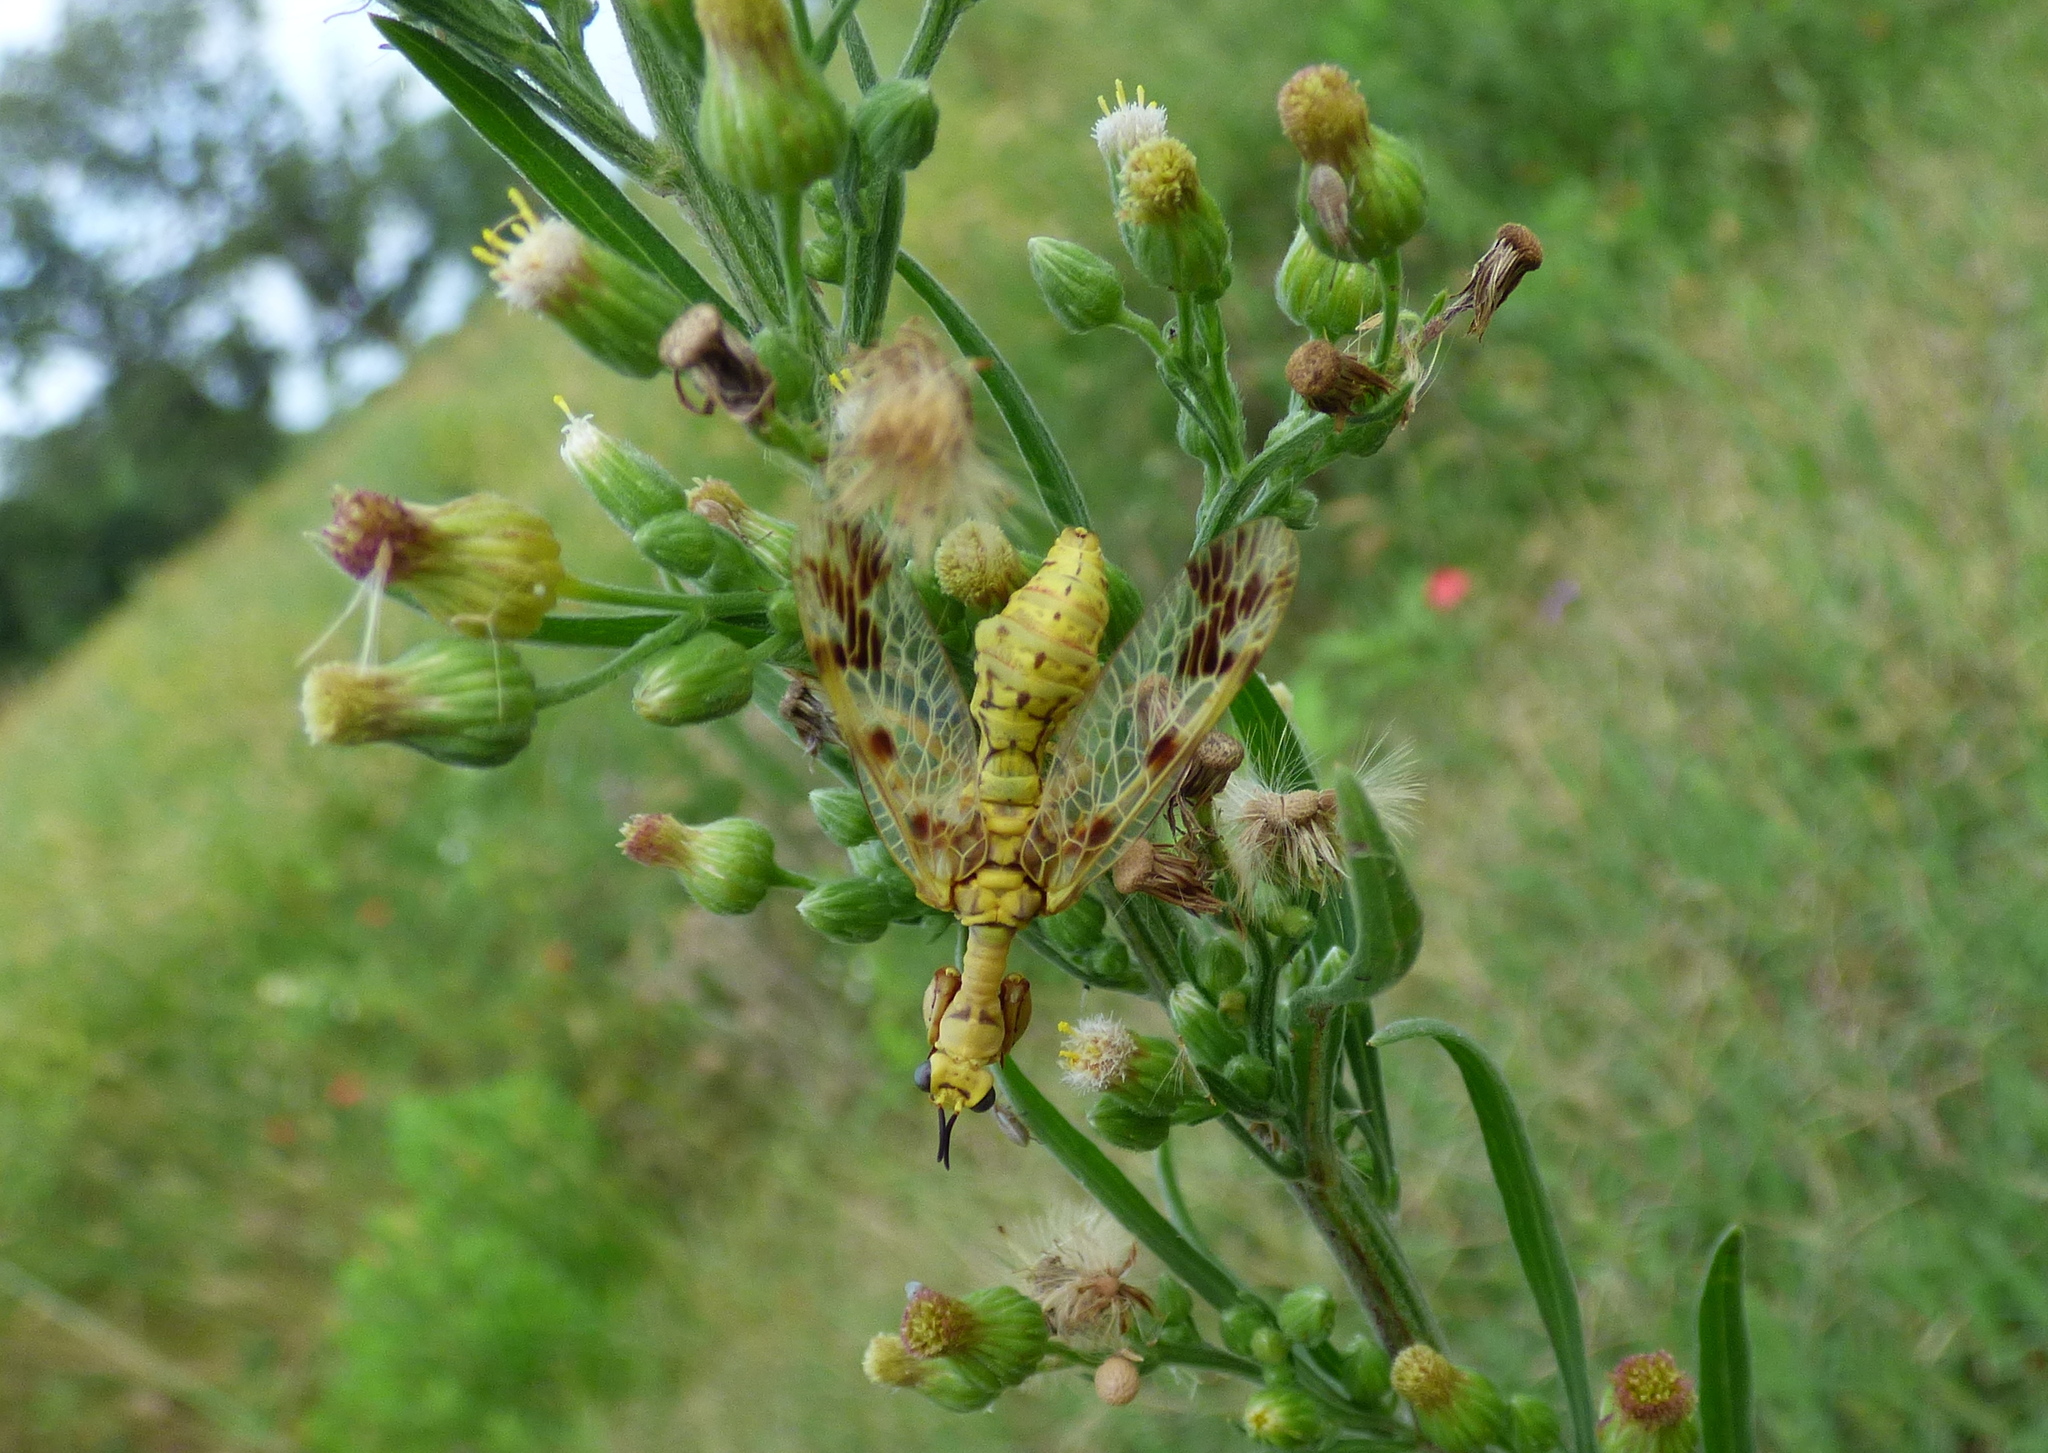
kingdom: Animalia
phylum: Arthropoda
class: Insecta
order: Neuroptera
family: Mantispidae
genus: Paramantispa
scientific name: Paramantispa ambusta
